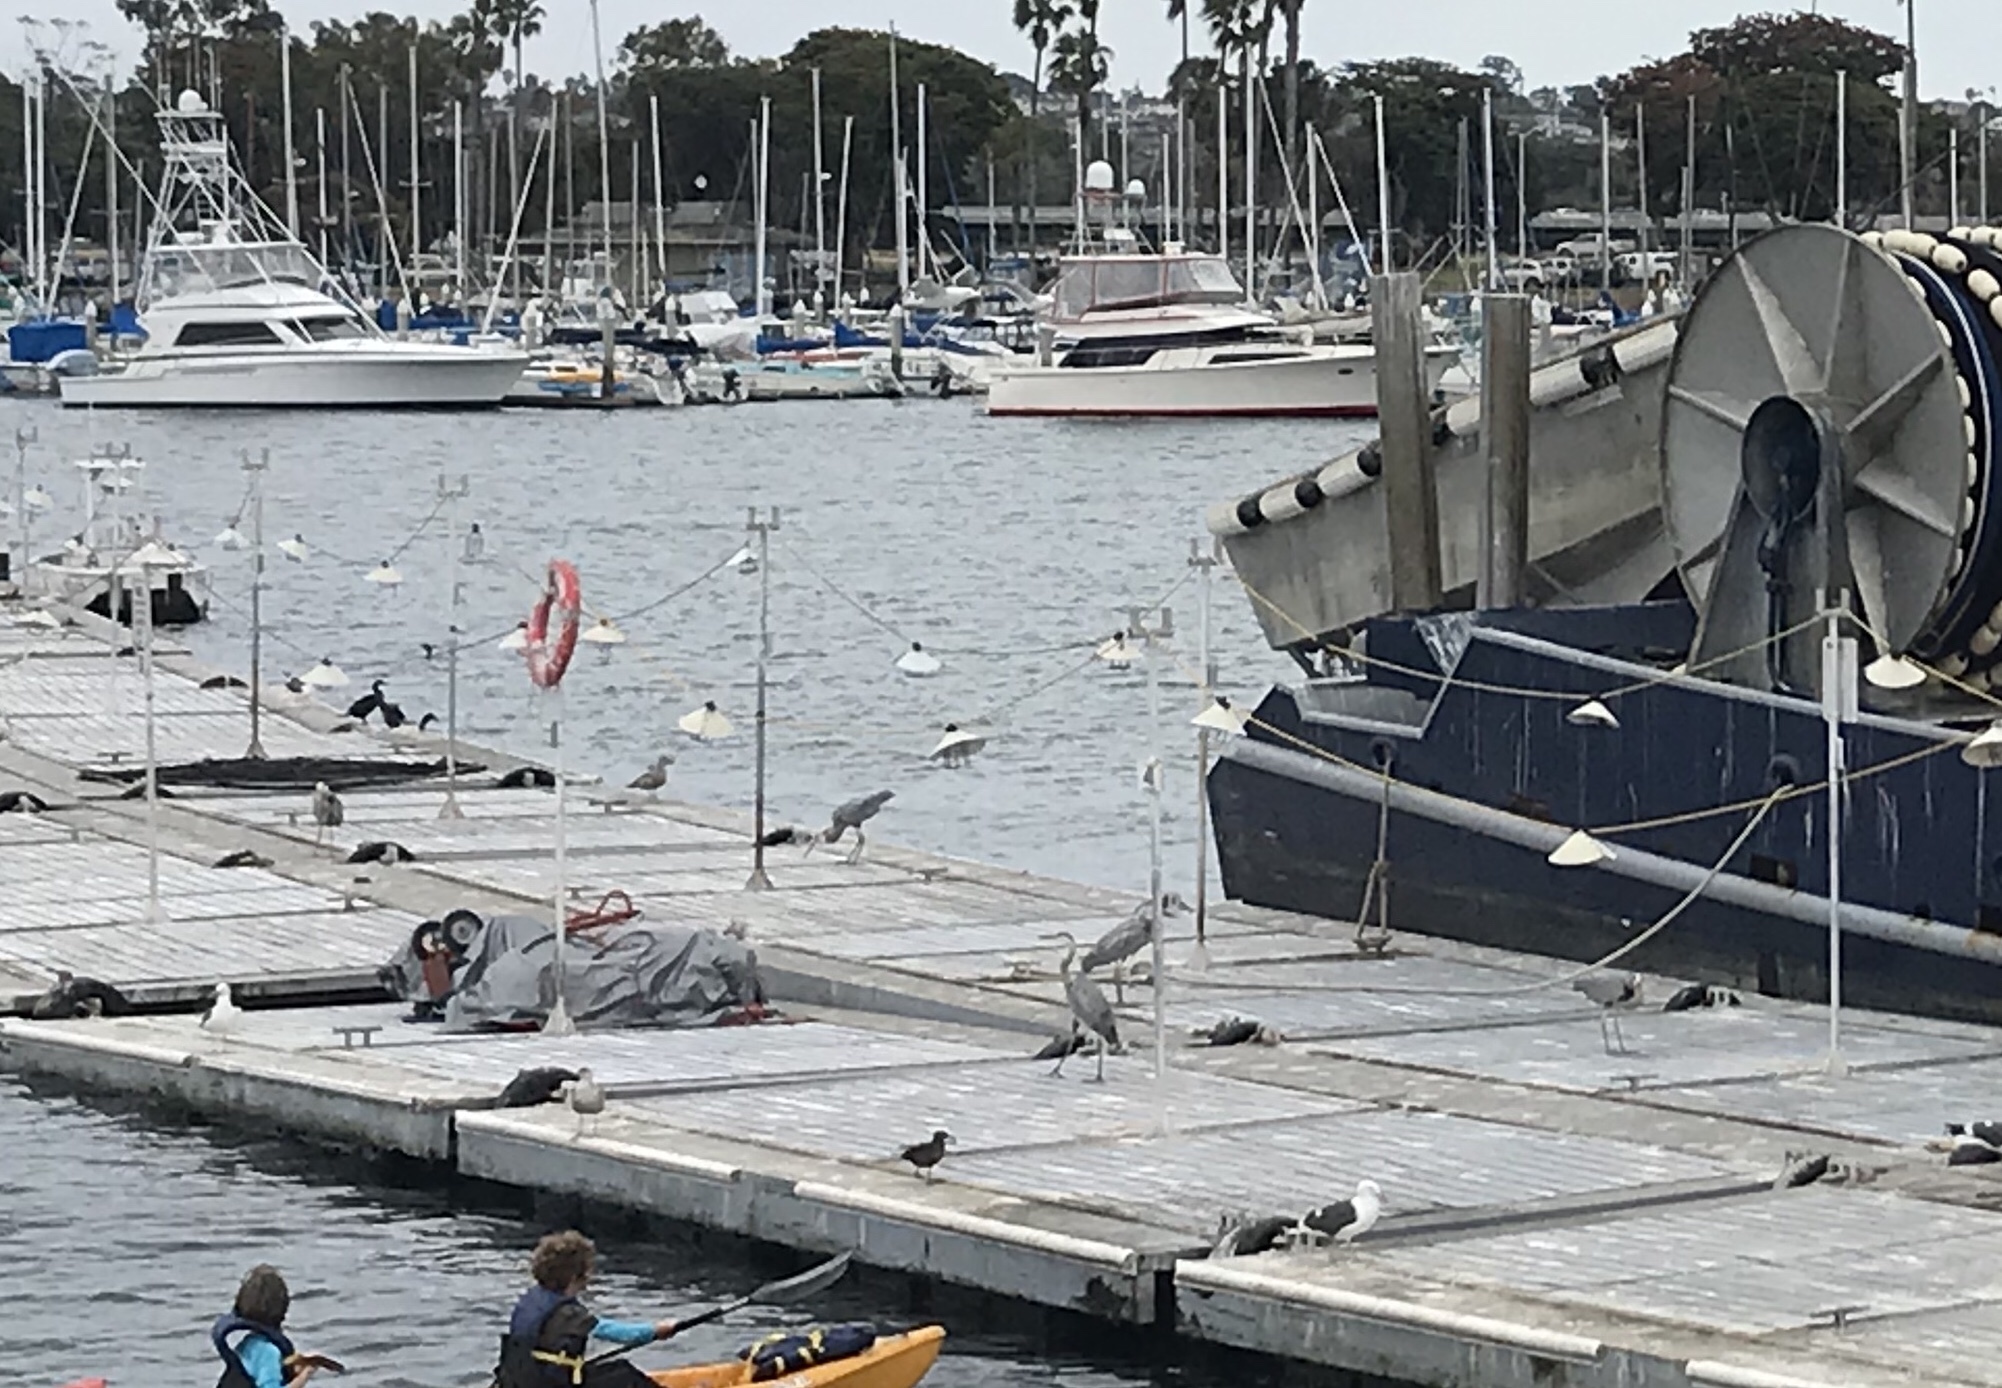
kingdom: Animalia
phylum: Chordata
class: Aves
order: Pelecaniformes
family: Ardeidae
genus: Ardea
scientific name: Ardea herodias
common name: Great blue heron
